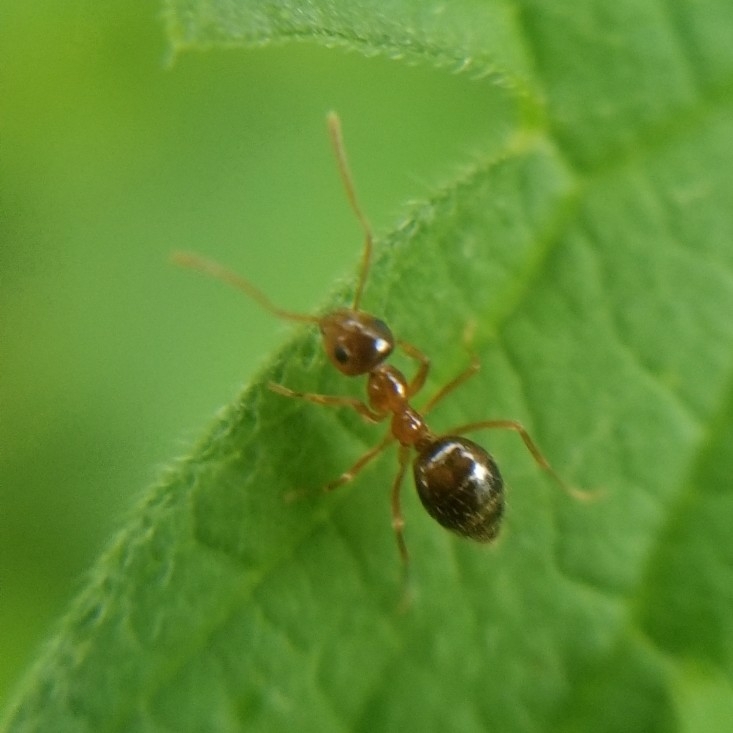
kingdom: Animalia
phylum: Arthropoda
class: Insecta
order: Hymenoptera
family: Formicidae
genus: Prenolepis
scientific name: Prenolepis imparis
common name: Small honey ant
